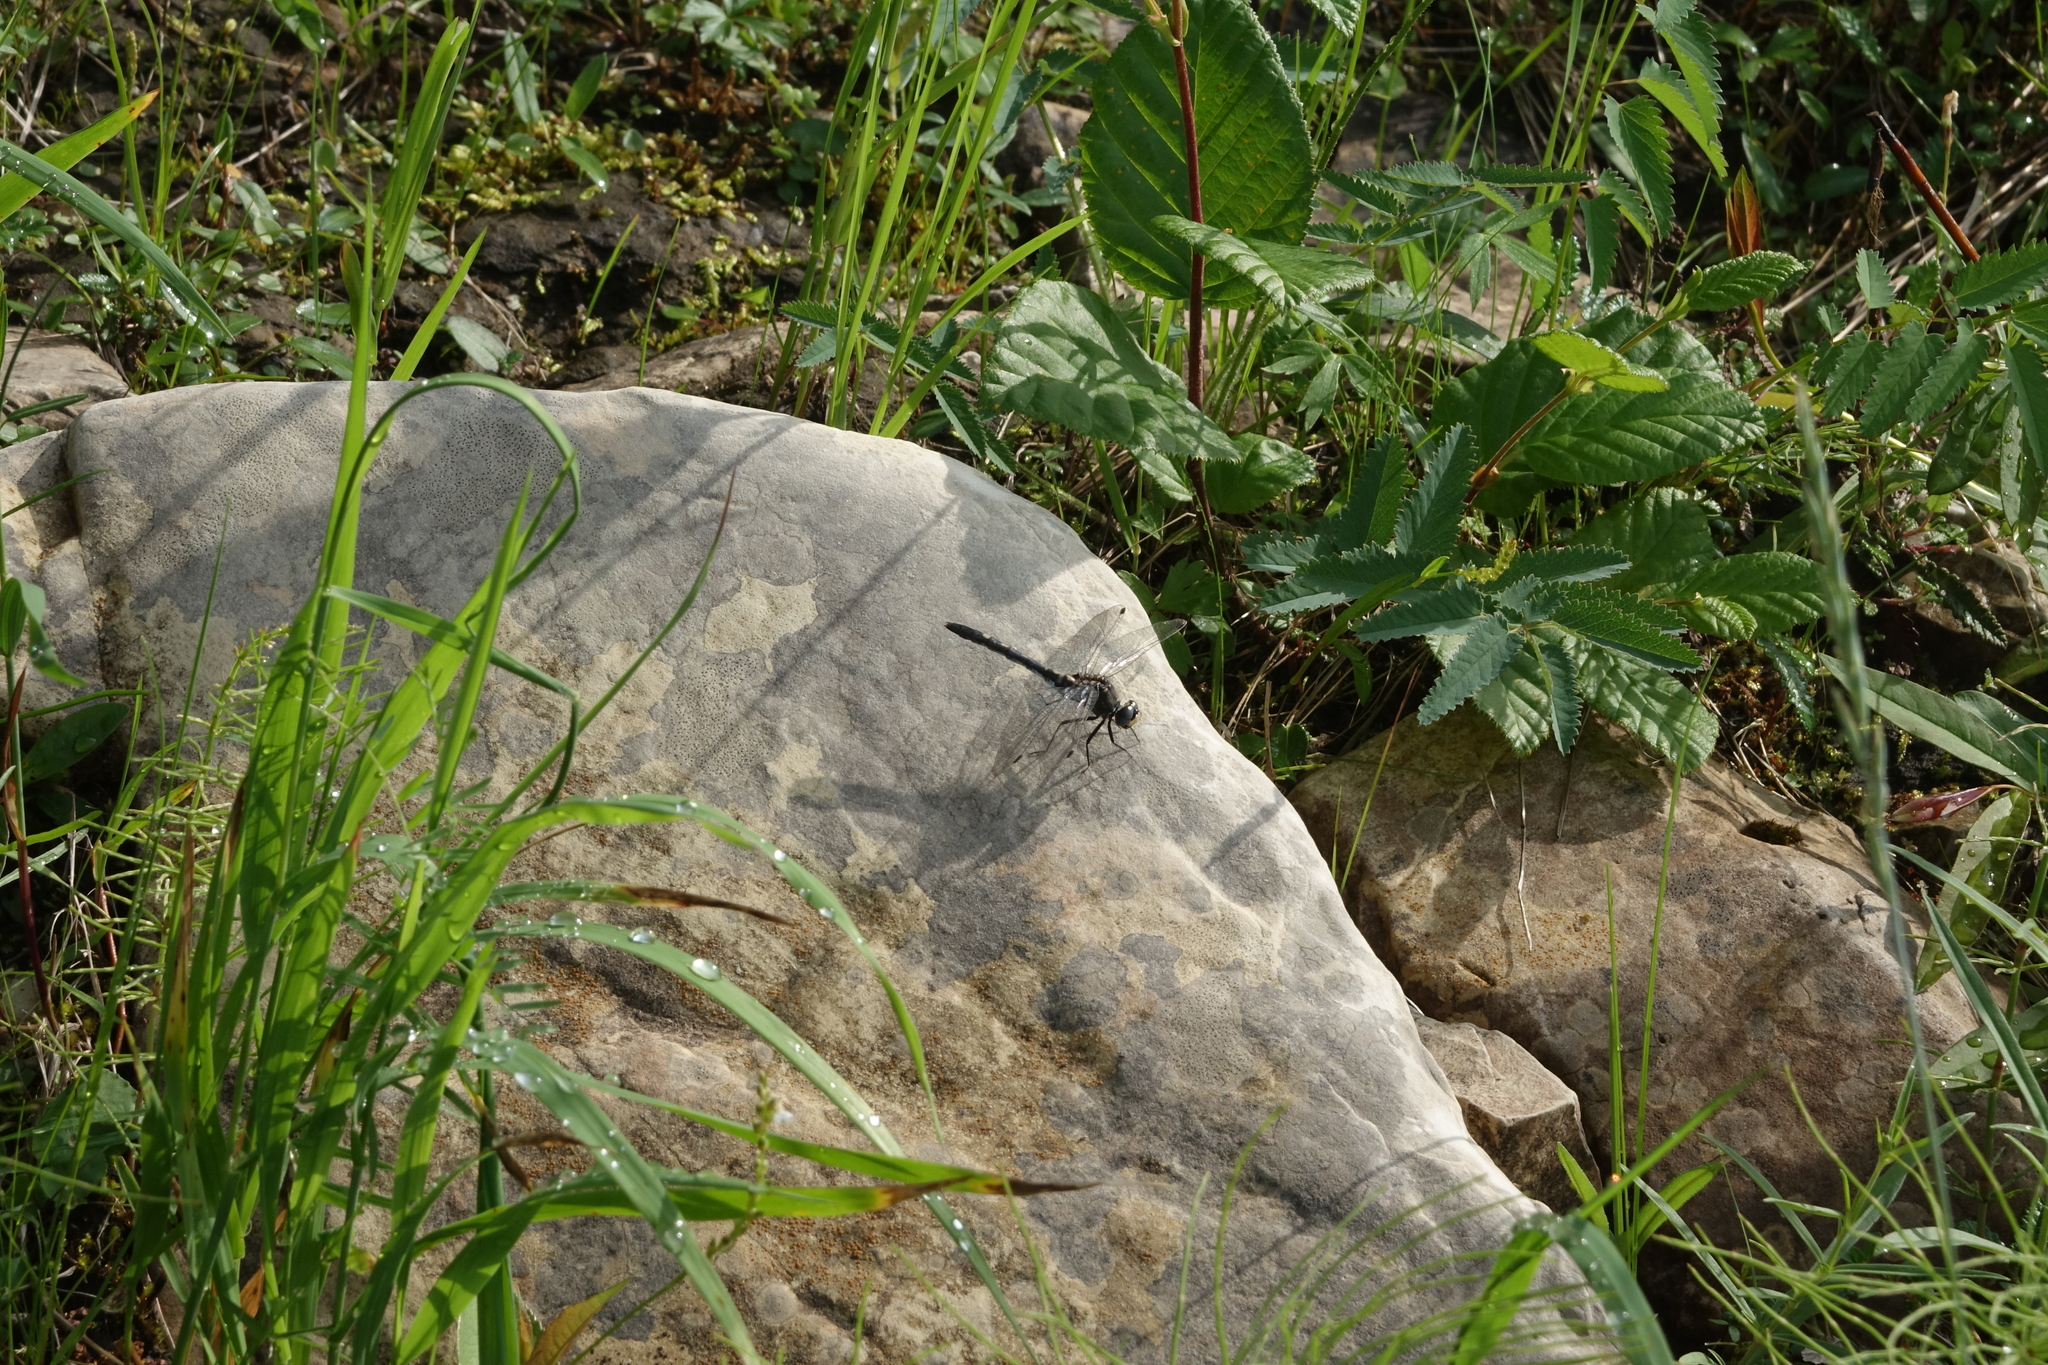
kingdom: Animalia
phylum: Arthropoda
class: Insecta
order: Odonata
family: Libellulidae
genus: Leucorrhinia
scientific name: Leucorrhinia orientalis
